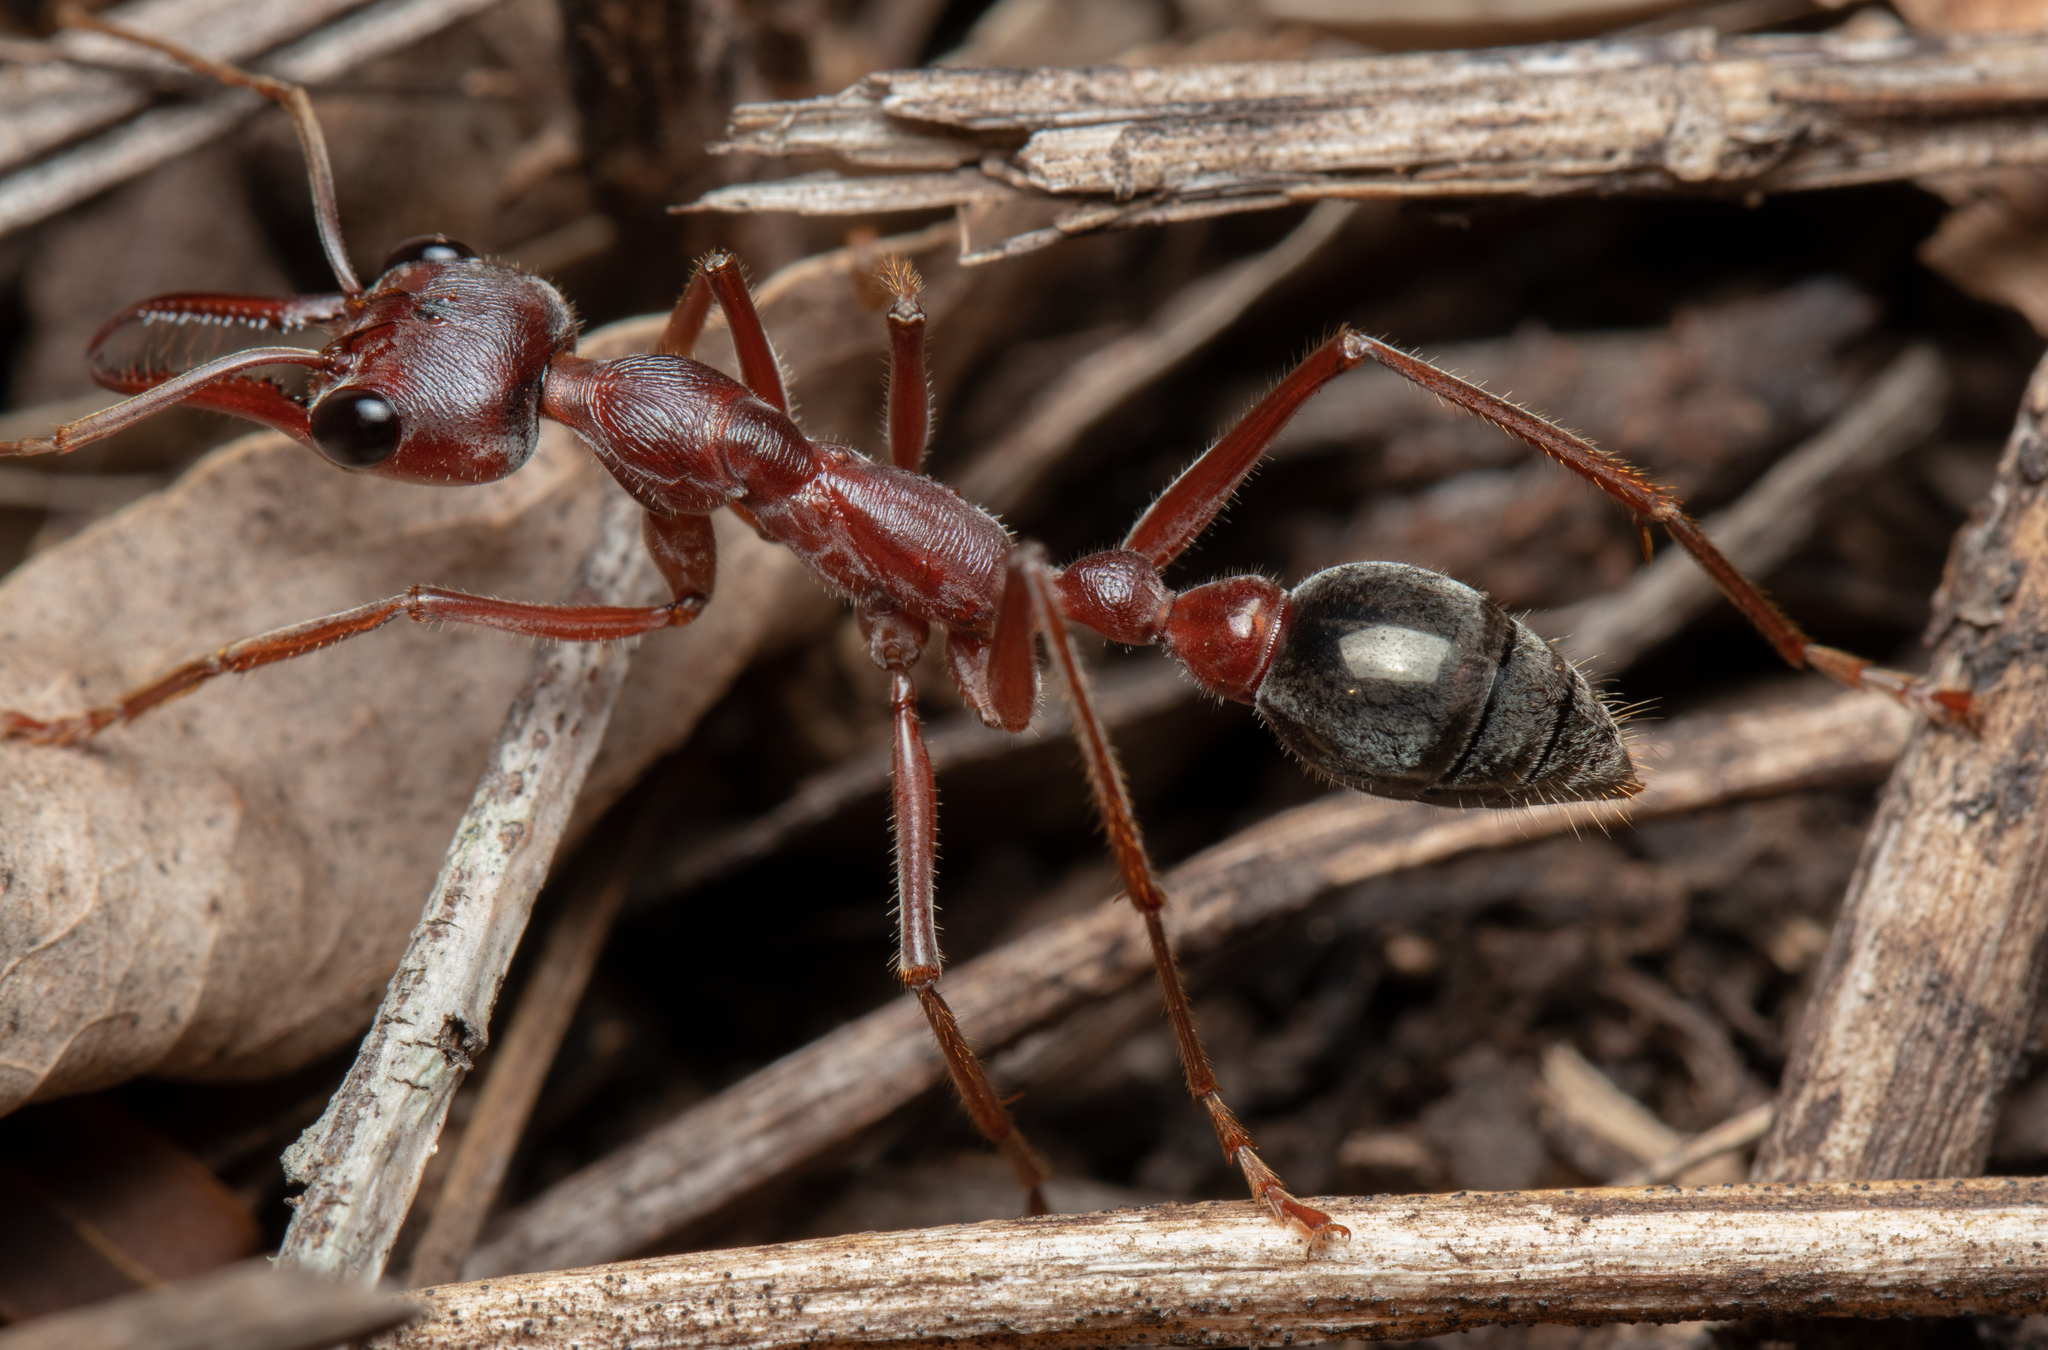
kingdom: Animalia
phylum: Arthropoda
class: Insecta
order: Hymenoptera
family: Formicidae
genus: Myrmecia
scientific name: Myrmecia brevinoda
